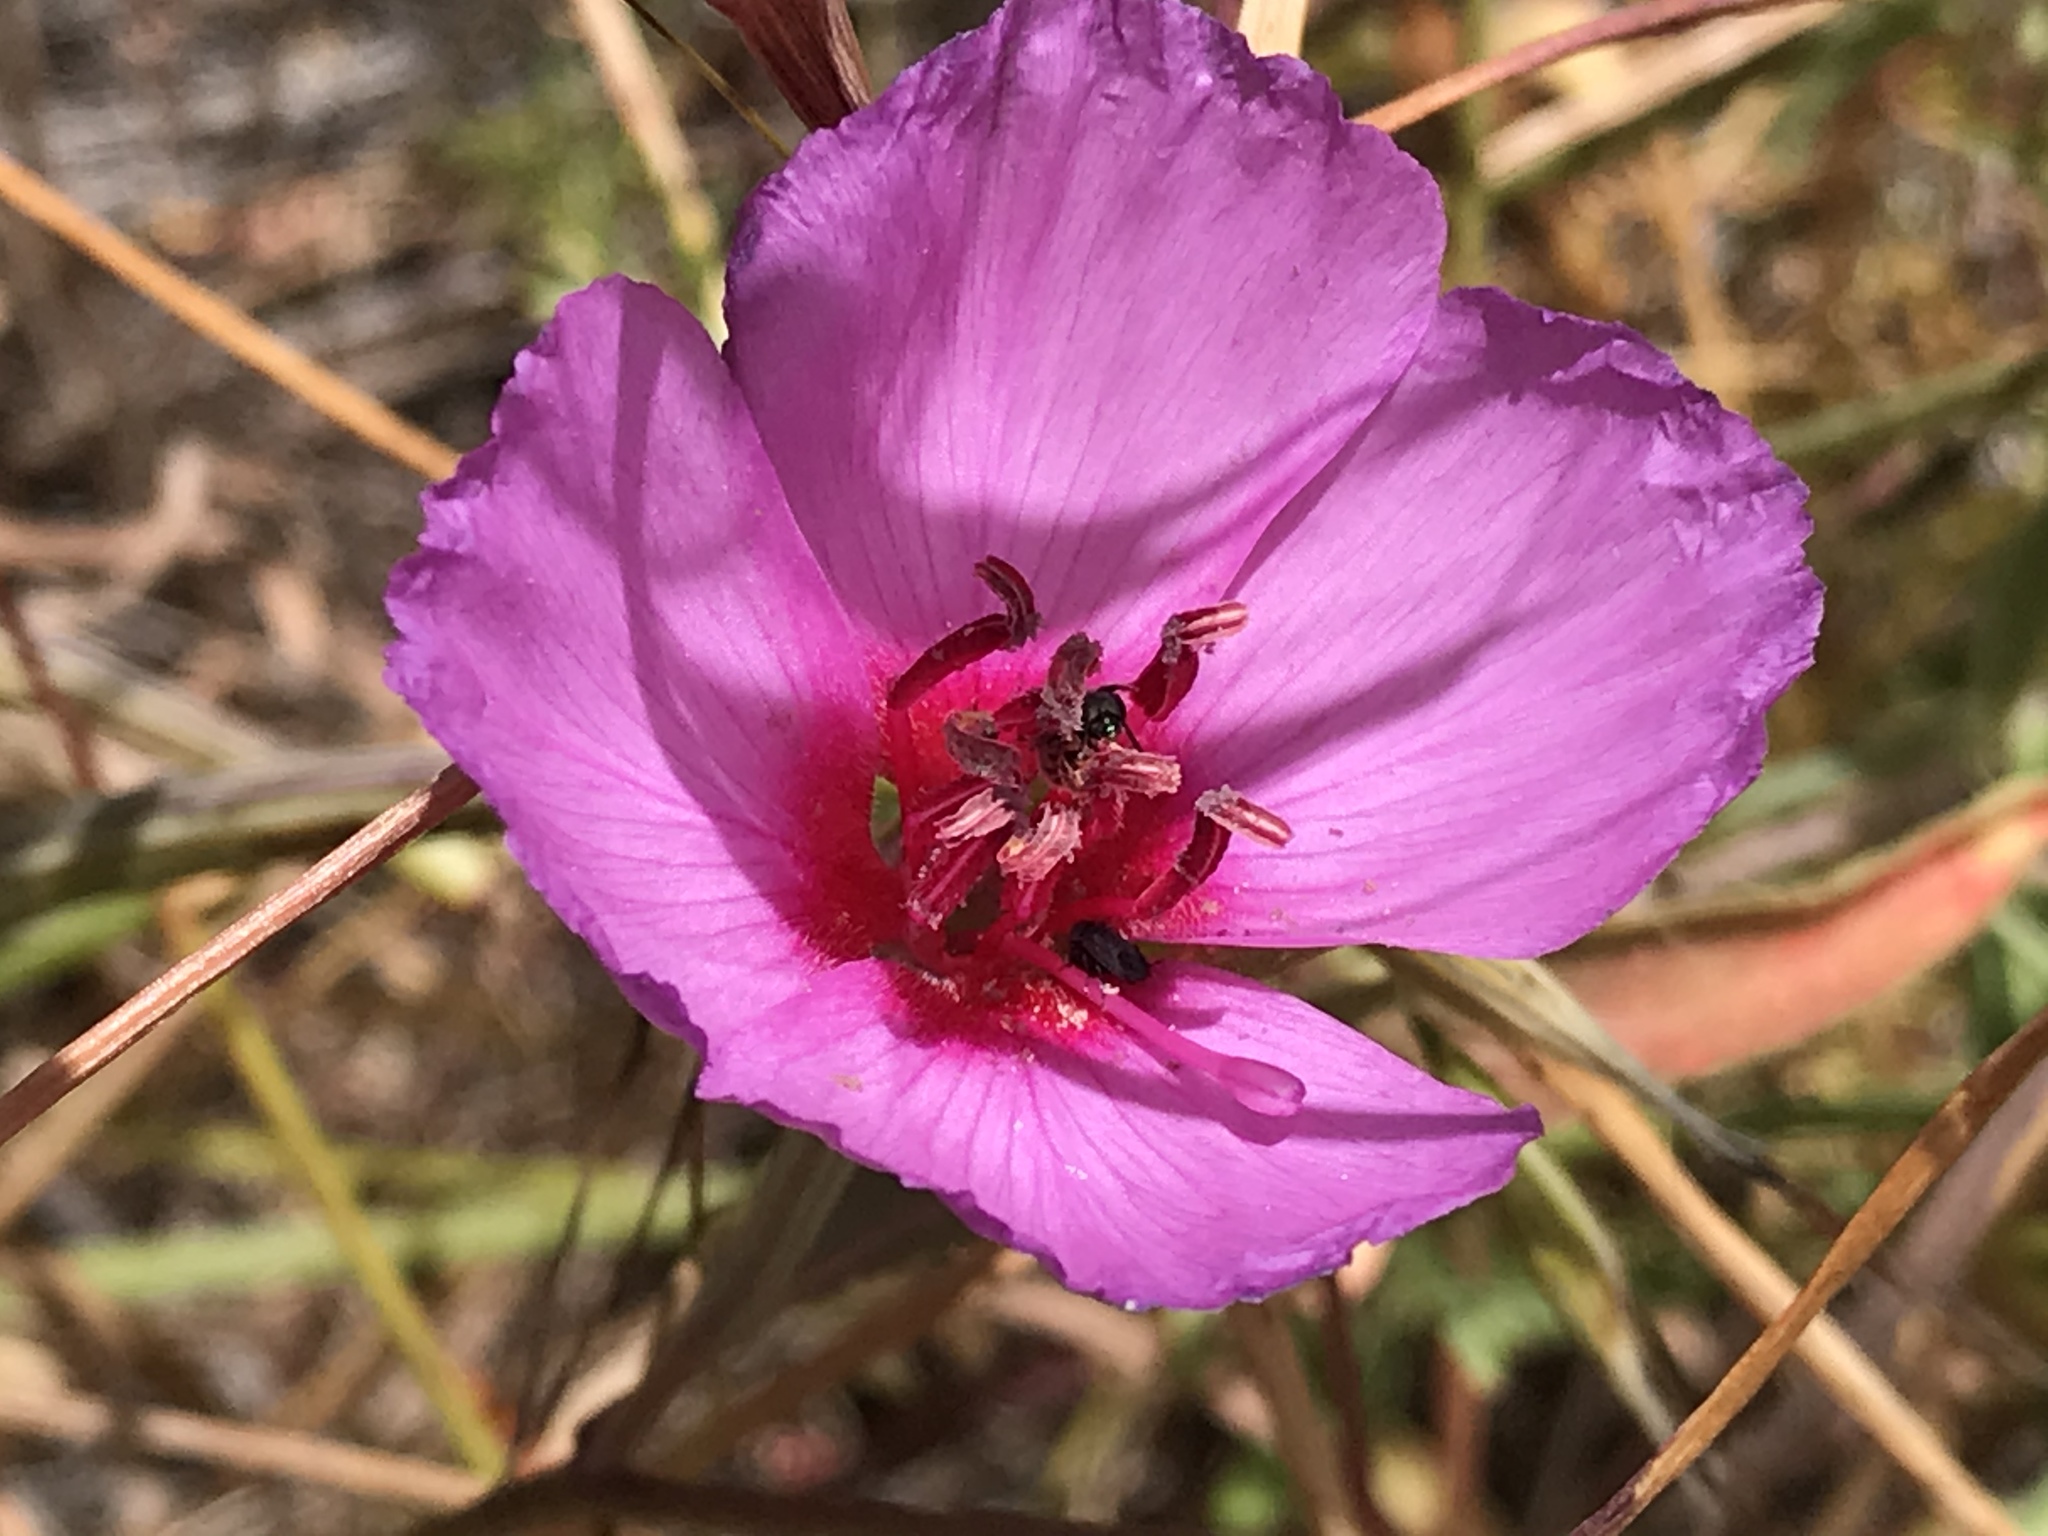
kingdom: Plantae
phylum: Tracheophyta
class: Magnoliopsida
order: Myrtales
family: Onagraceae
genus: Clarkia
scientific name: Clarkia rubicunda
